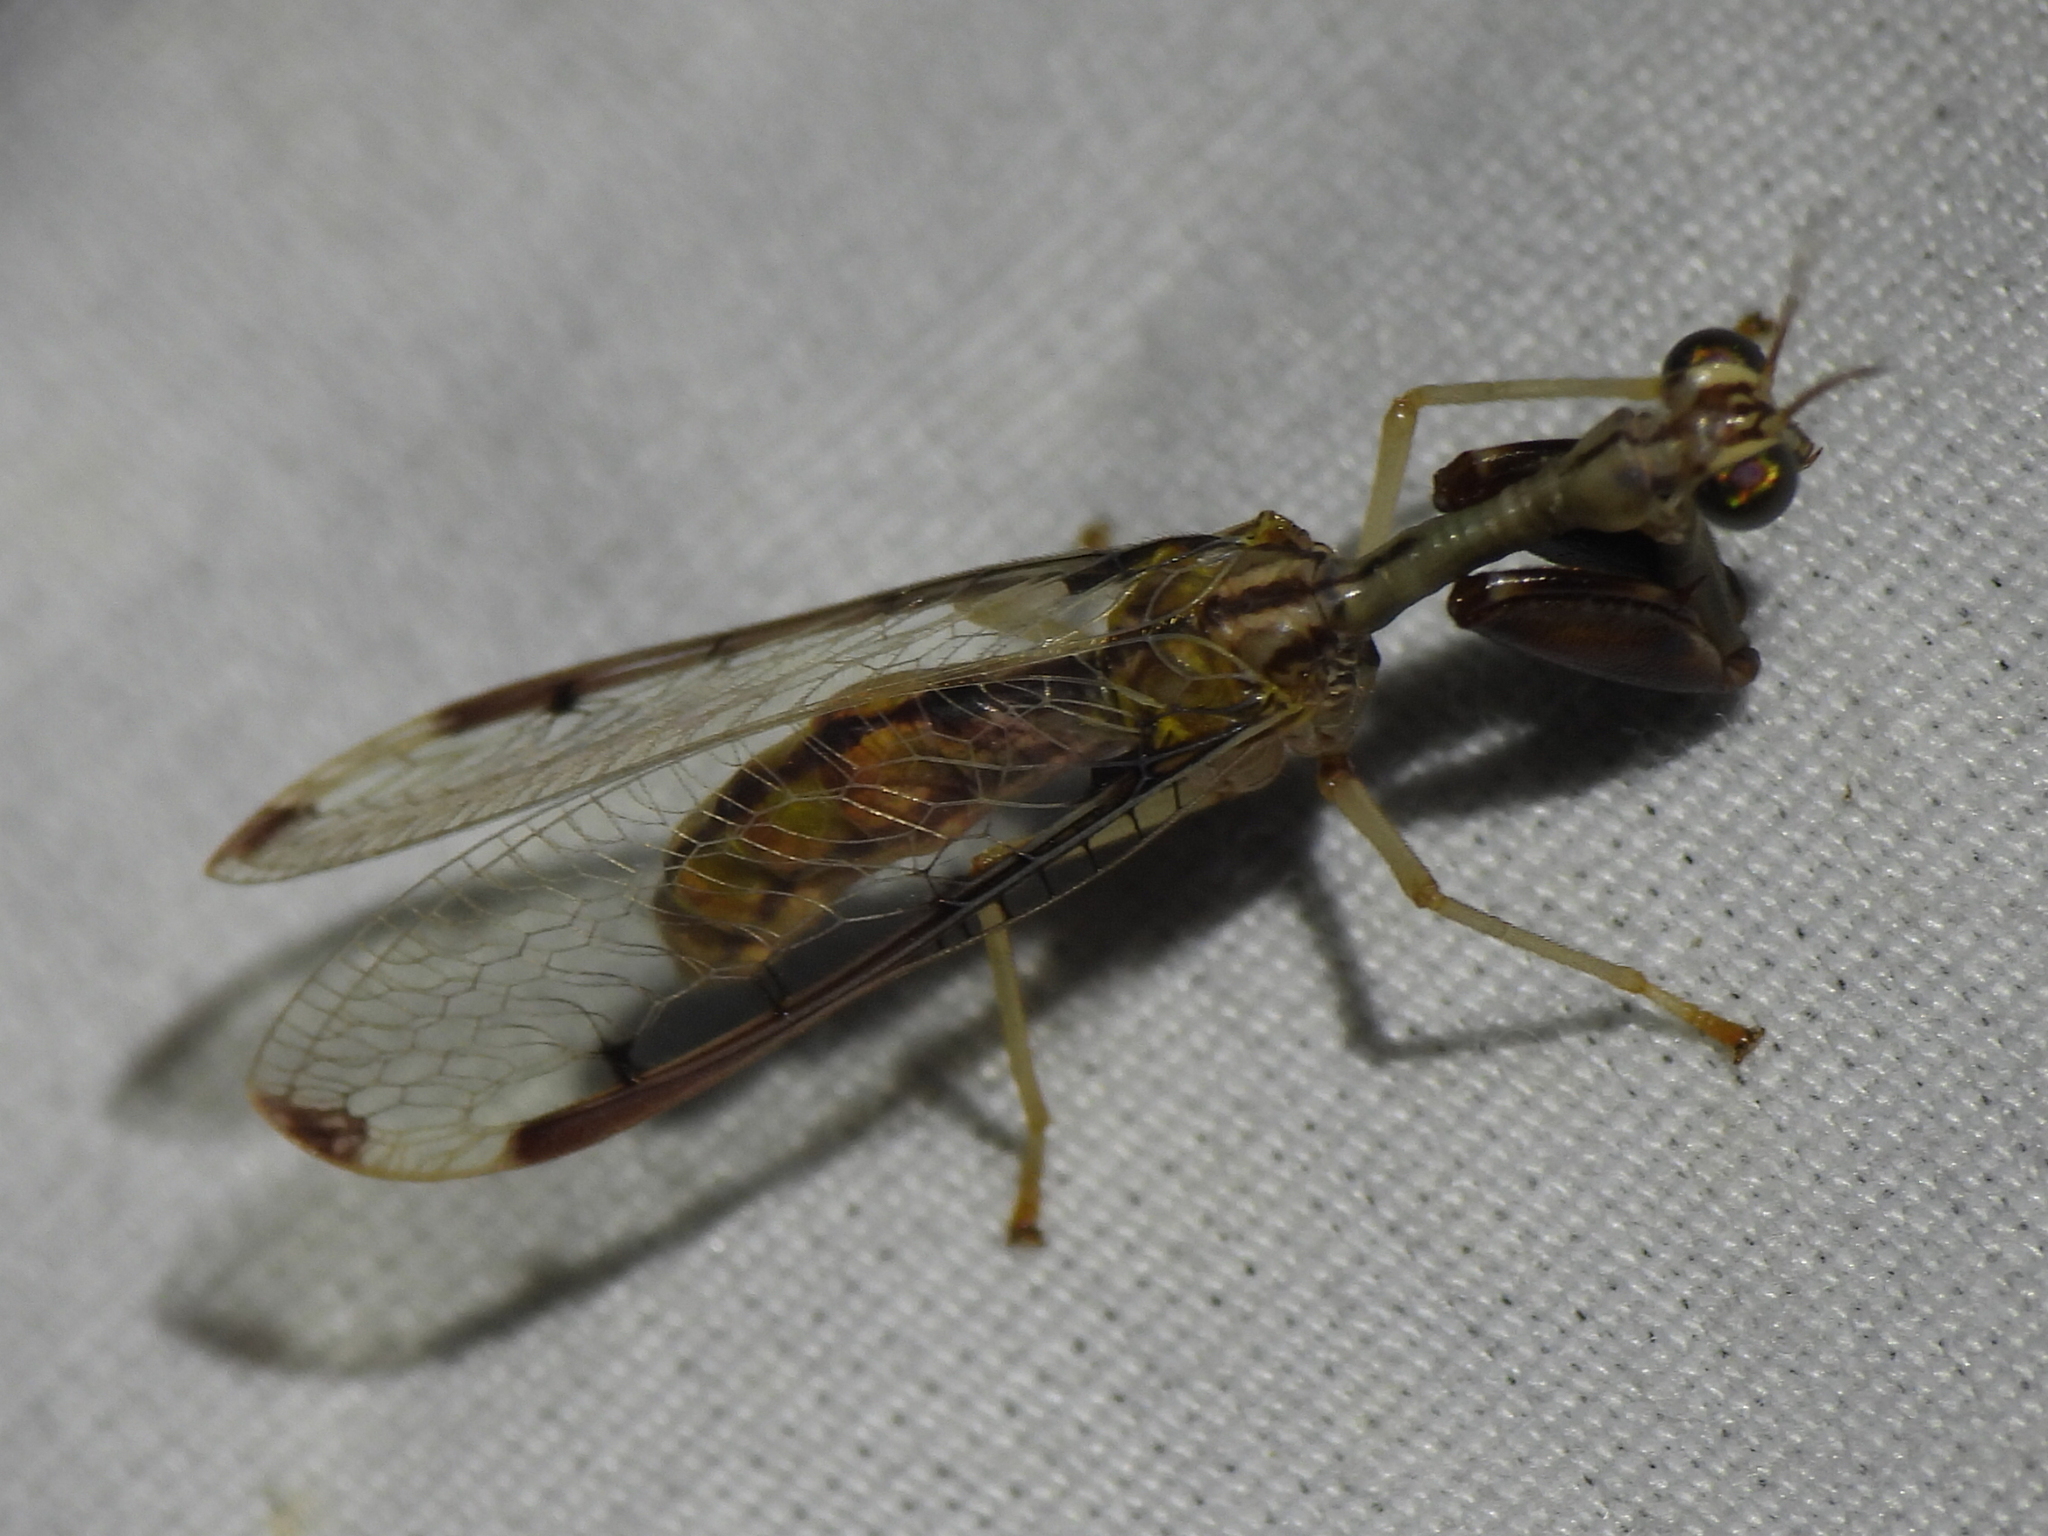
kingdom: Animalia
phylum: Arthropoda
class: Insecta
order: Neuroptera
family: Mantispidae
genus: Dicromantispa
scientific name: Dicromantispa interrupta
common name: Four-spotted mantidfly
